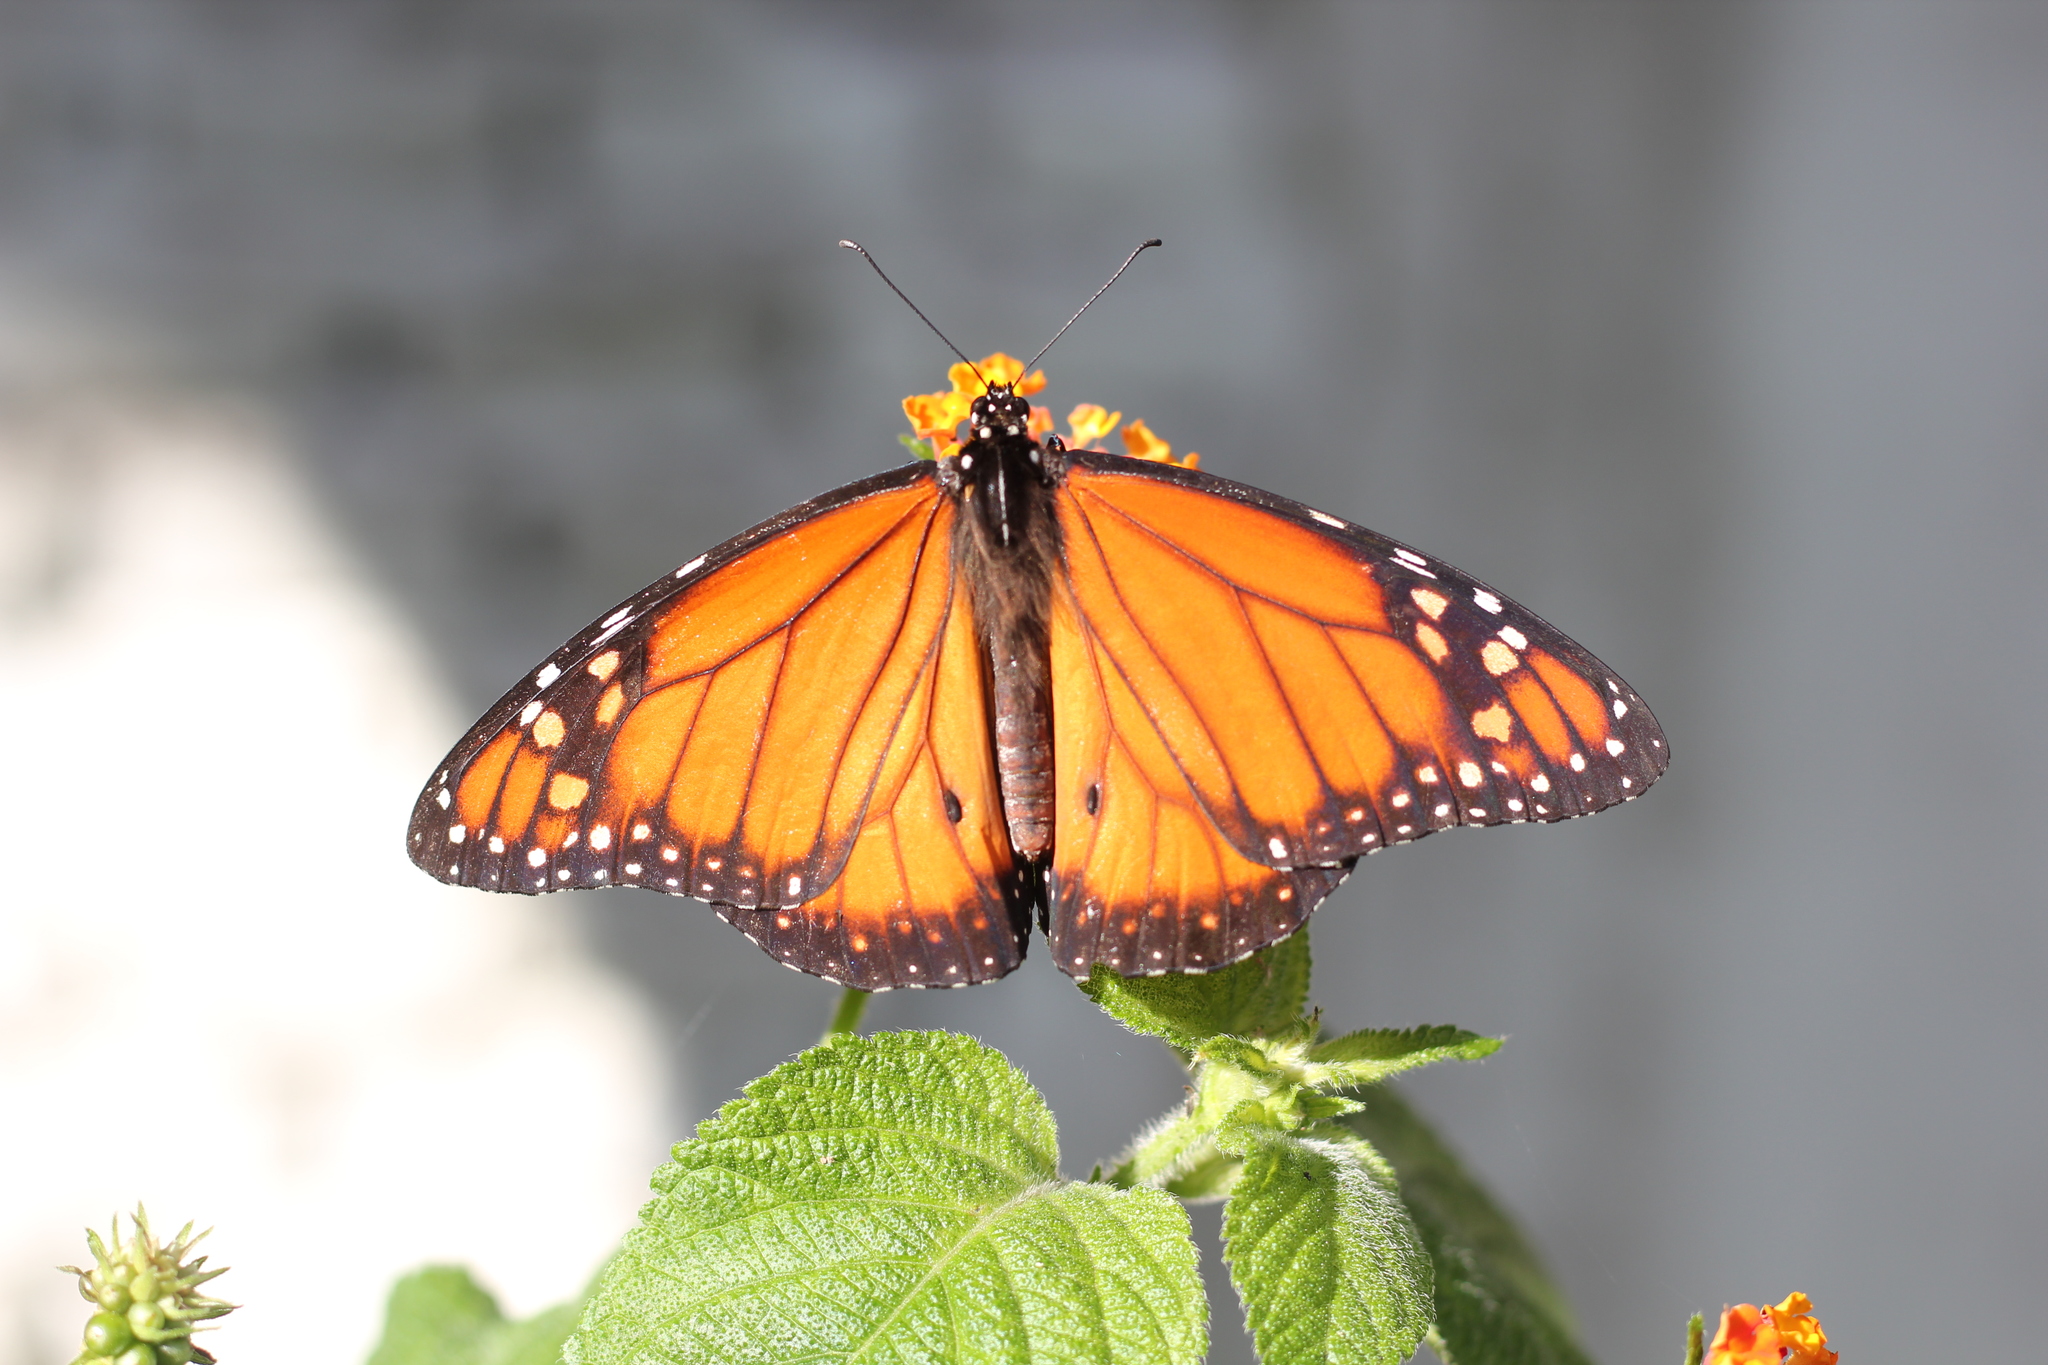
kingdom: Animalia
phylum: Arthropoda
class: Insecta
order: Lepidoptera
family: Nymphalidae
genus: Danaus
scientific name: Danaus erippus
